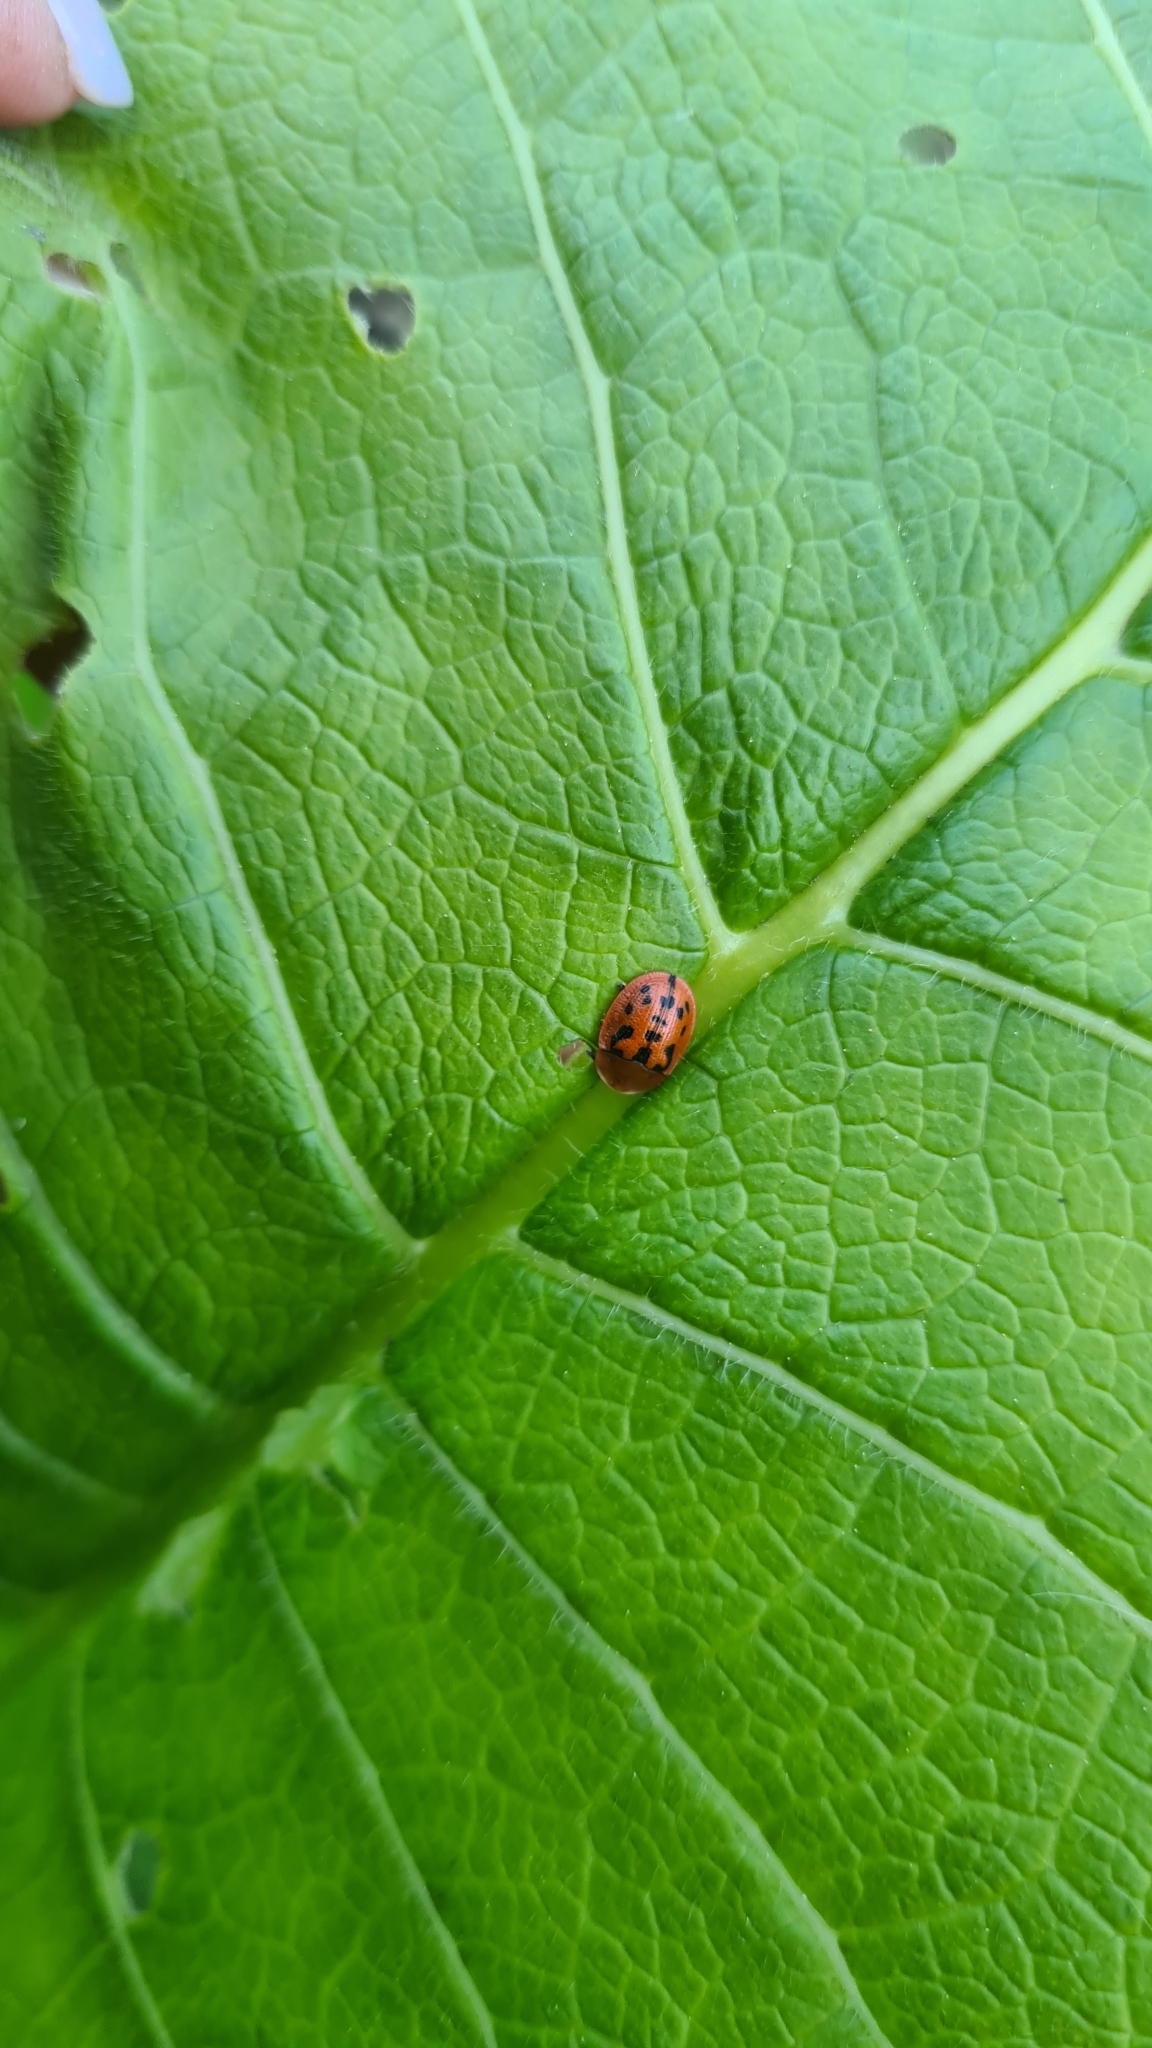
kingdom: Animalia
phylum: Arthropoda
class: Insecta
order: Coleoptera
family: Chrysomelidae
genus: Cassida
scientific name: Cassida murraea
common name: Fleabane tortoise beetle
